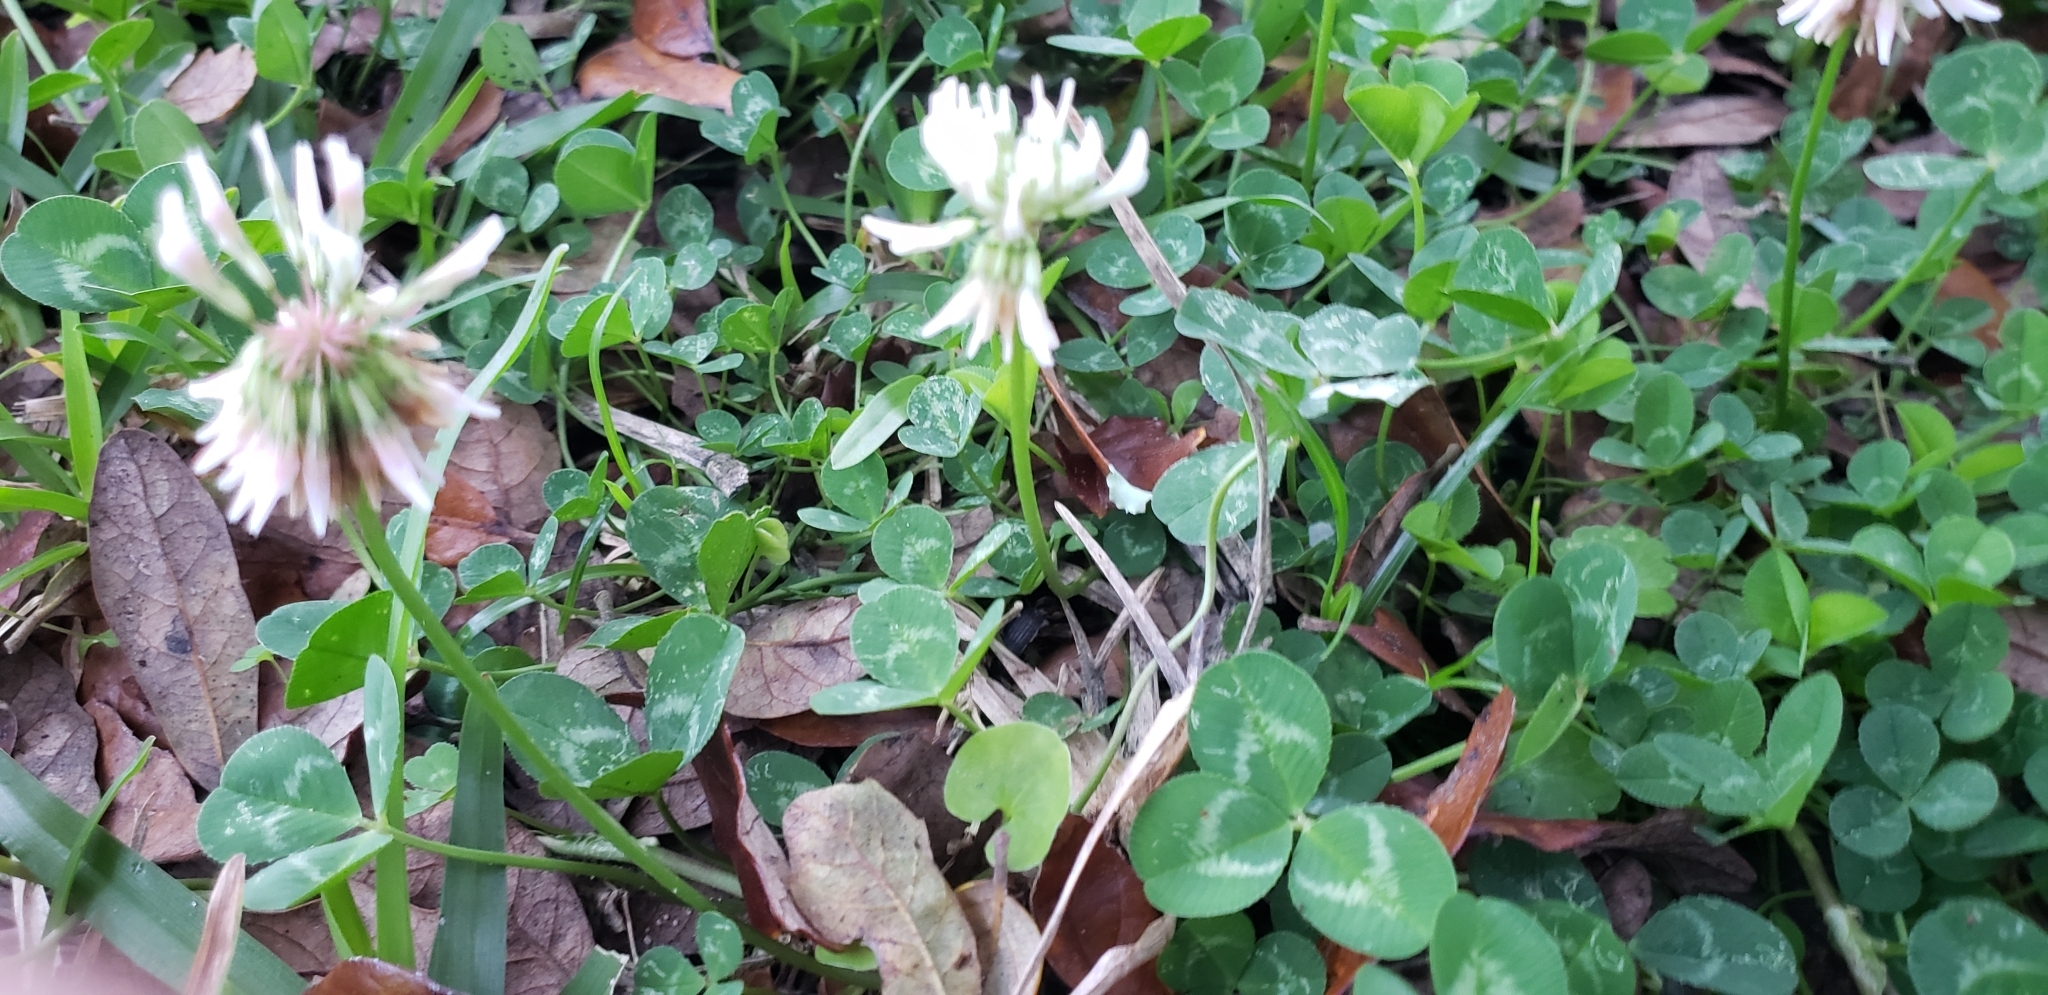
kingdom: Plantae
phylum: Tracheophyta
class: Magnoliopsida
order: Fabales
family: Fabaceae
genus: Trifolium
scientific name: Trifolium repens
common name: White clover
